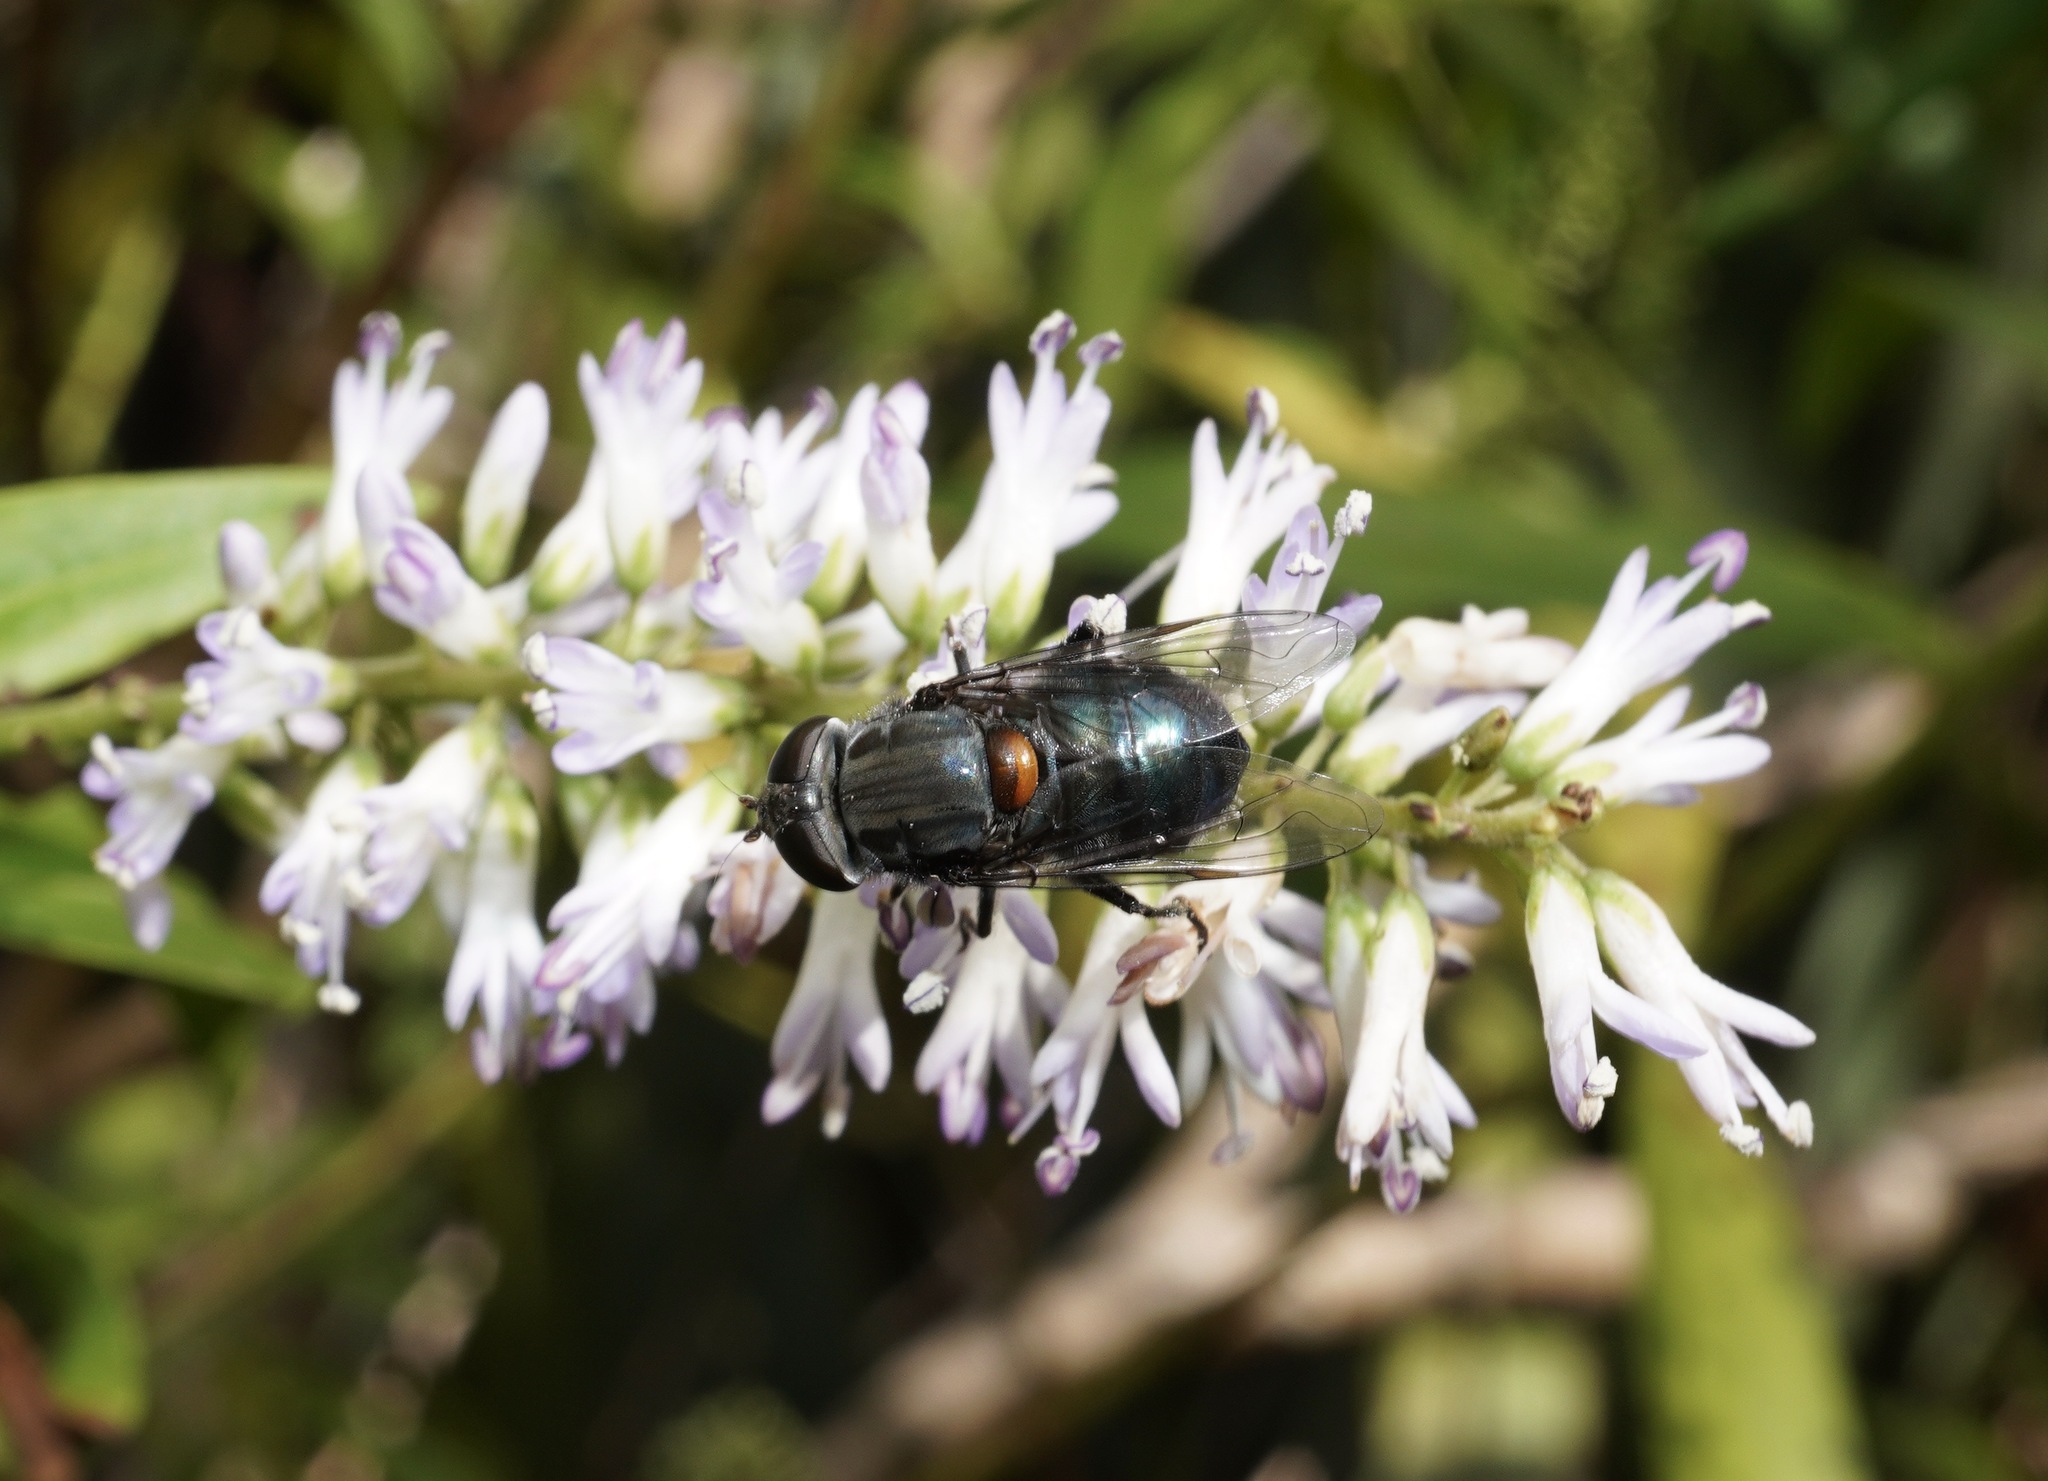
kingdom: Animalia
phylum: Arthropoda
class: Insecta
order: Diptera
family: Syrphidae
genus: Helophilus
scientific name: Helophilus hochstetteri
